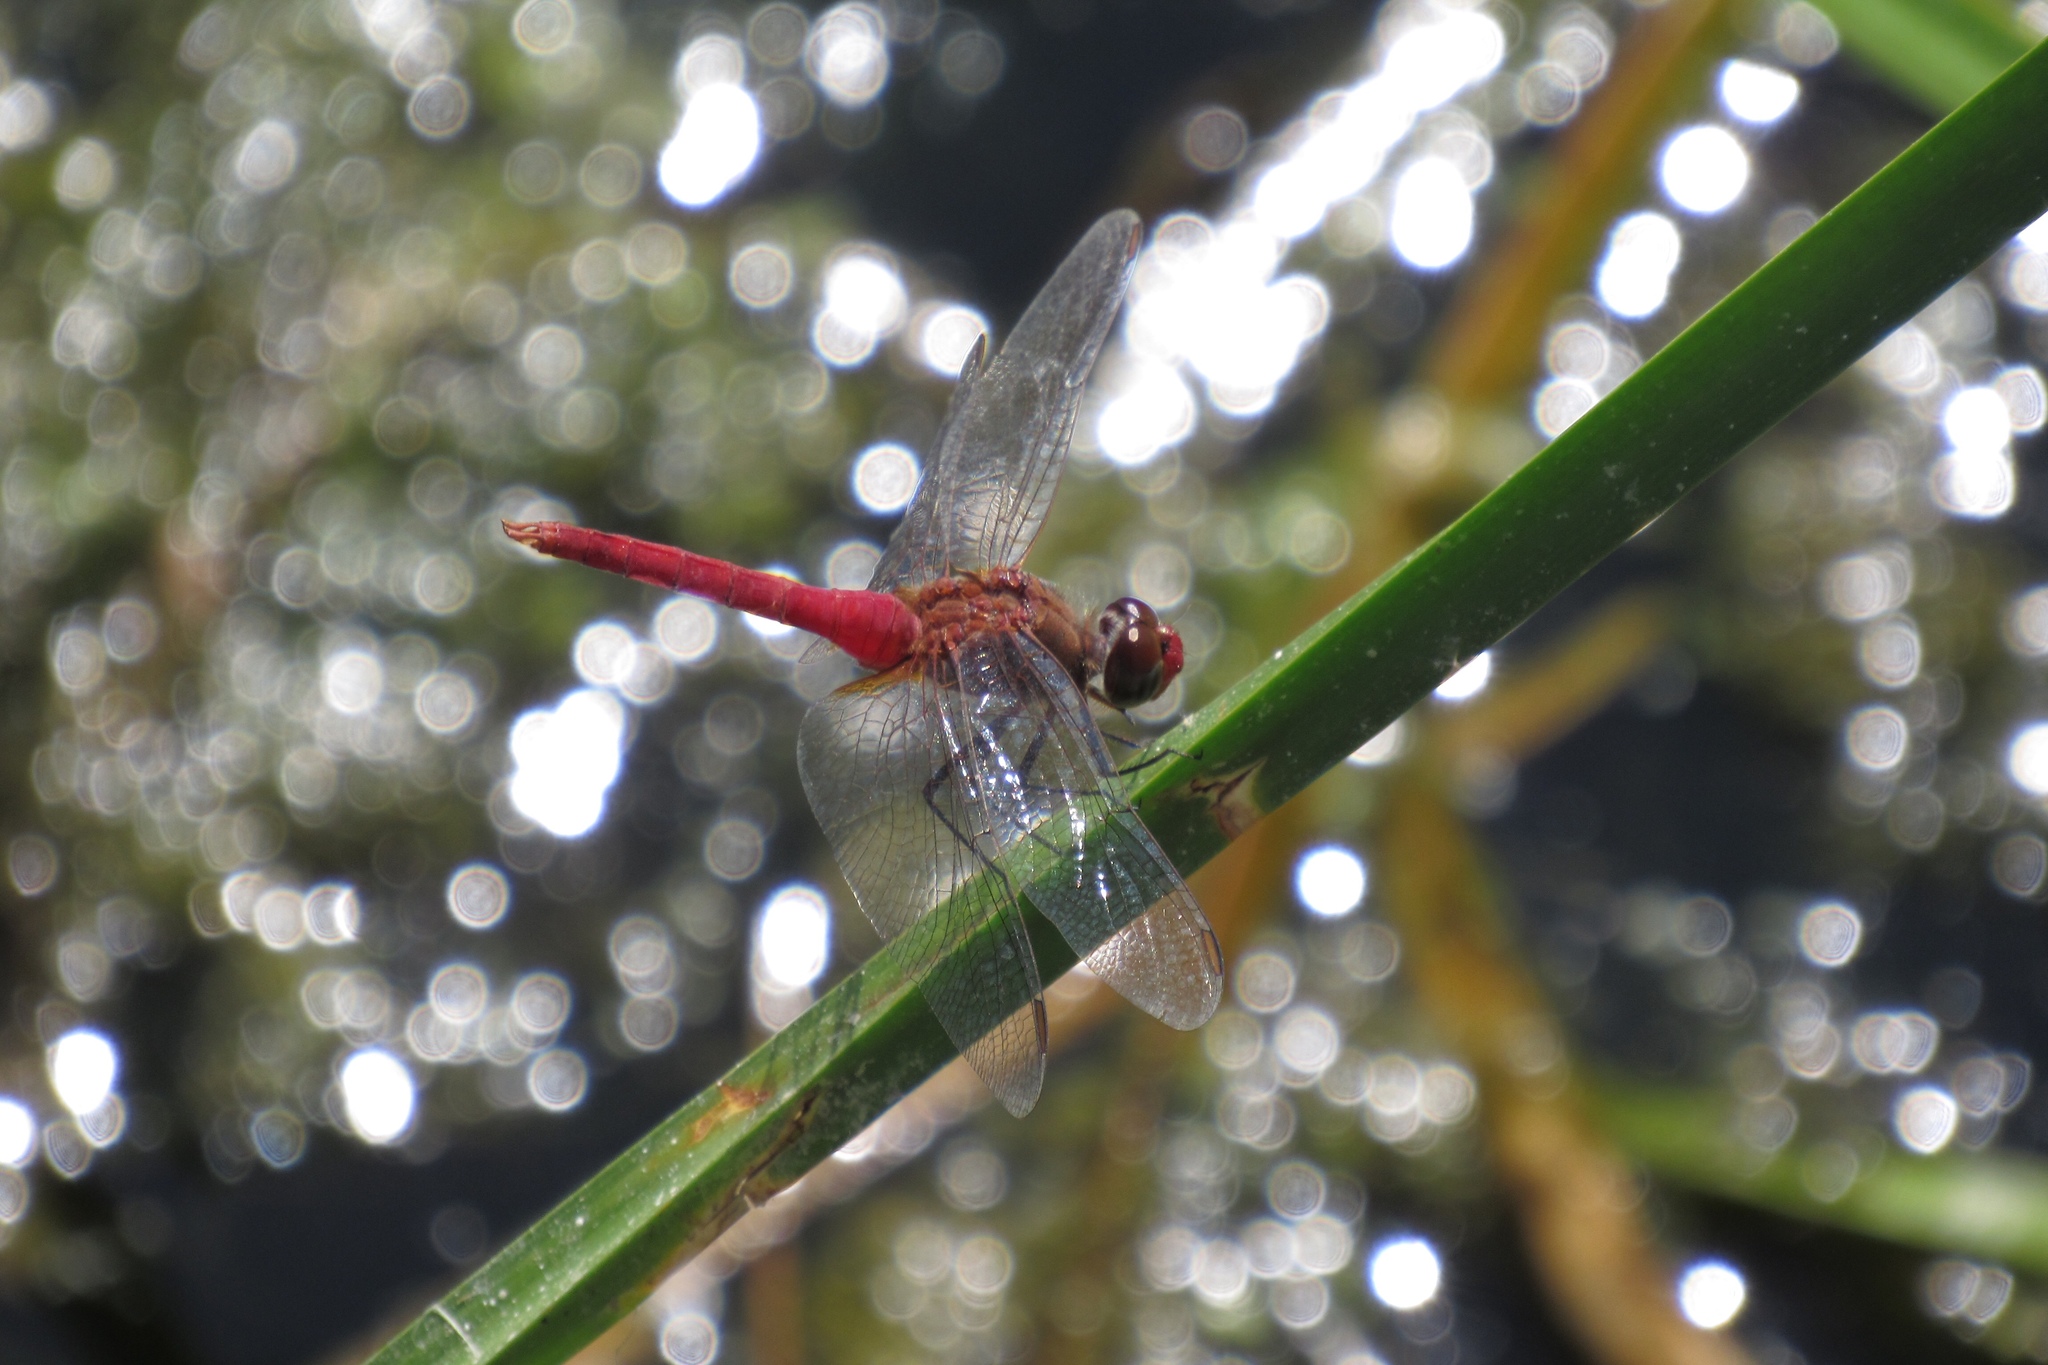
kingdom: Animalia
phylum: Arthropoda
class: Insecta
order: Odonata
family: Libellulidae
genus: Brachymesia
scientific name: Brachymesia furcata
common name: Red-taled pennant
